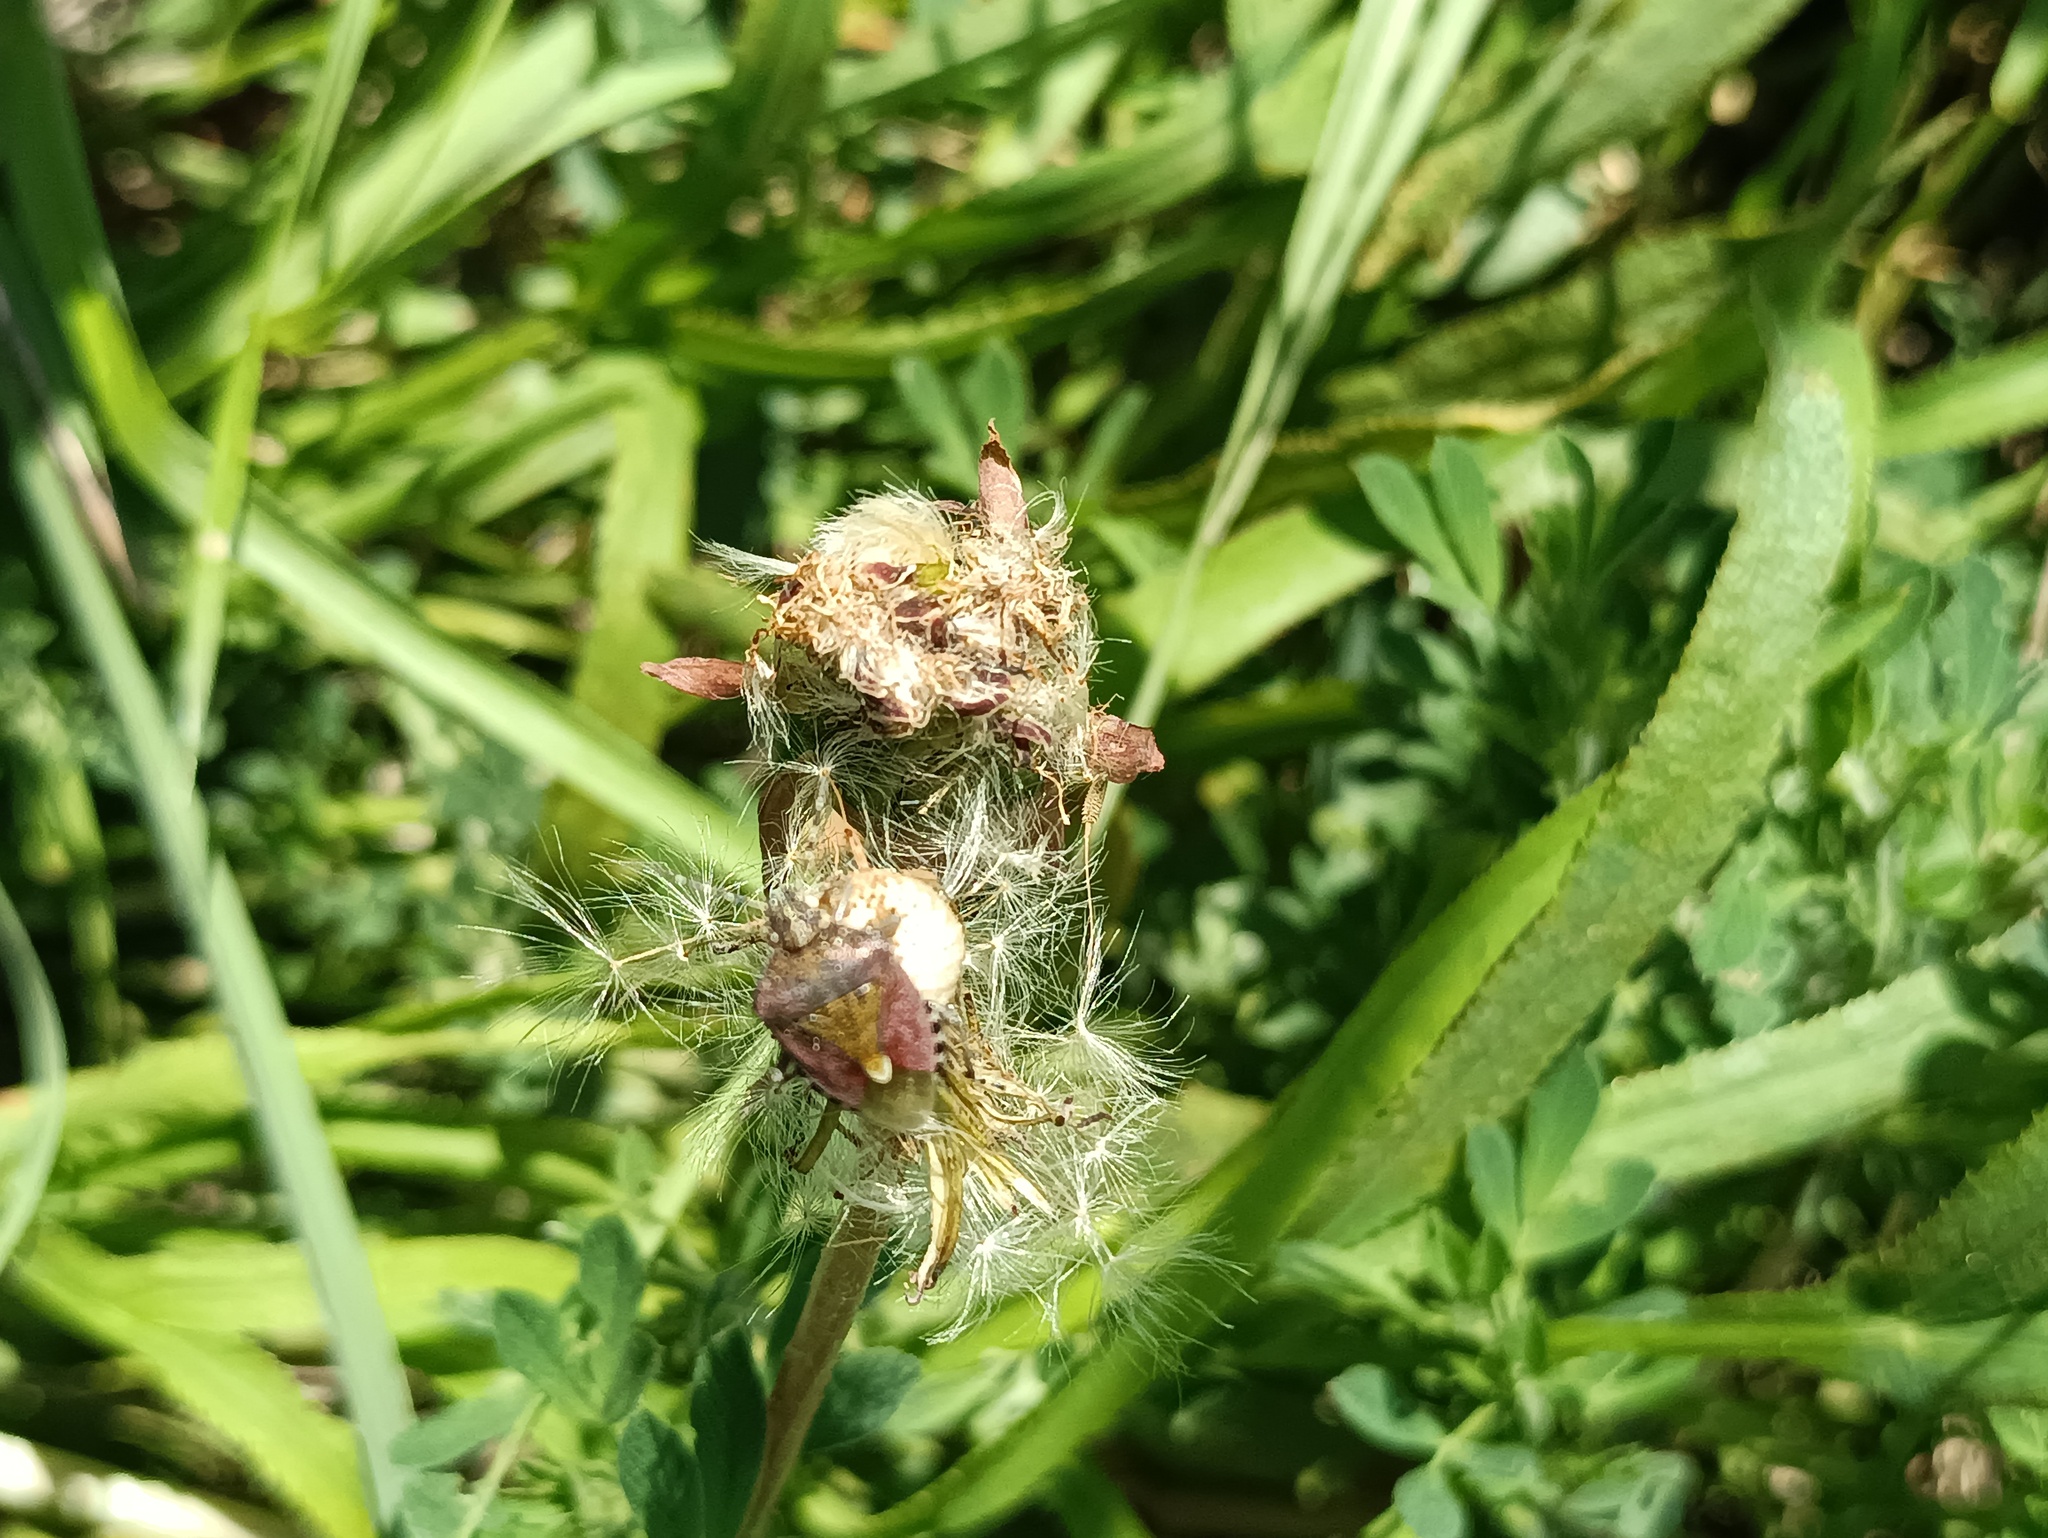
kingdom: Animalia
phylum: Arthropoda
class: Insecta
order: Hemiptera
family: Pentatomidae
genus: Dolycoris
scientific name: Dolycoris baccarum
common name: Sloe bug
